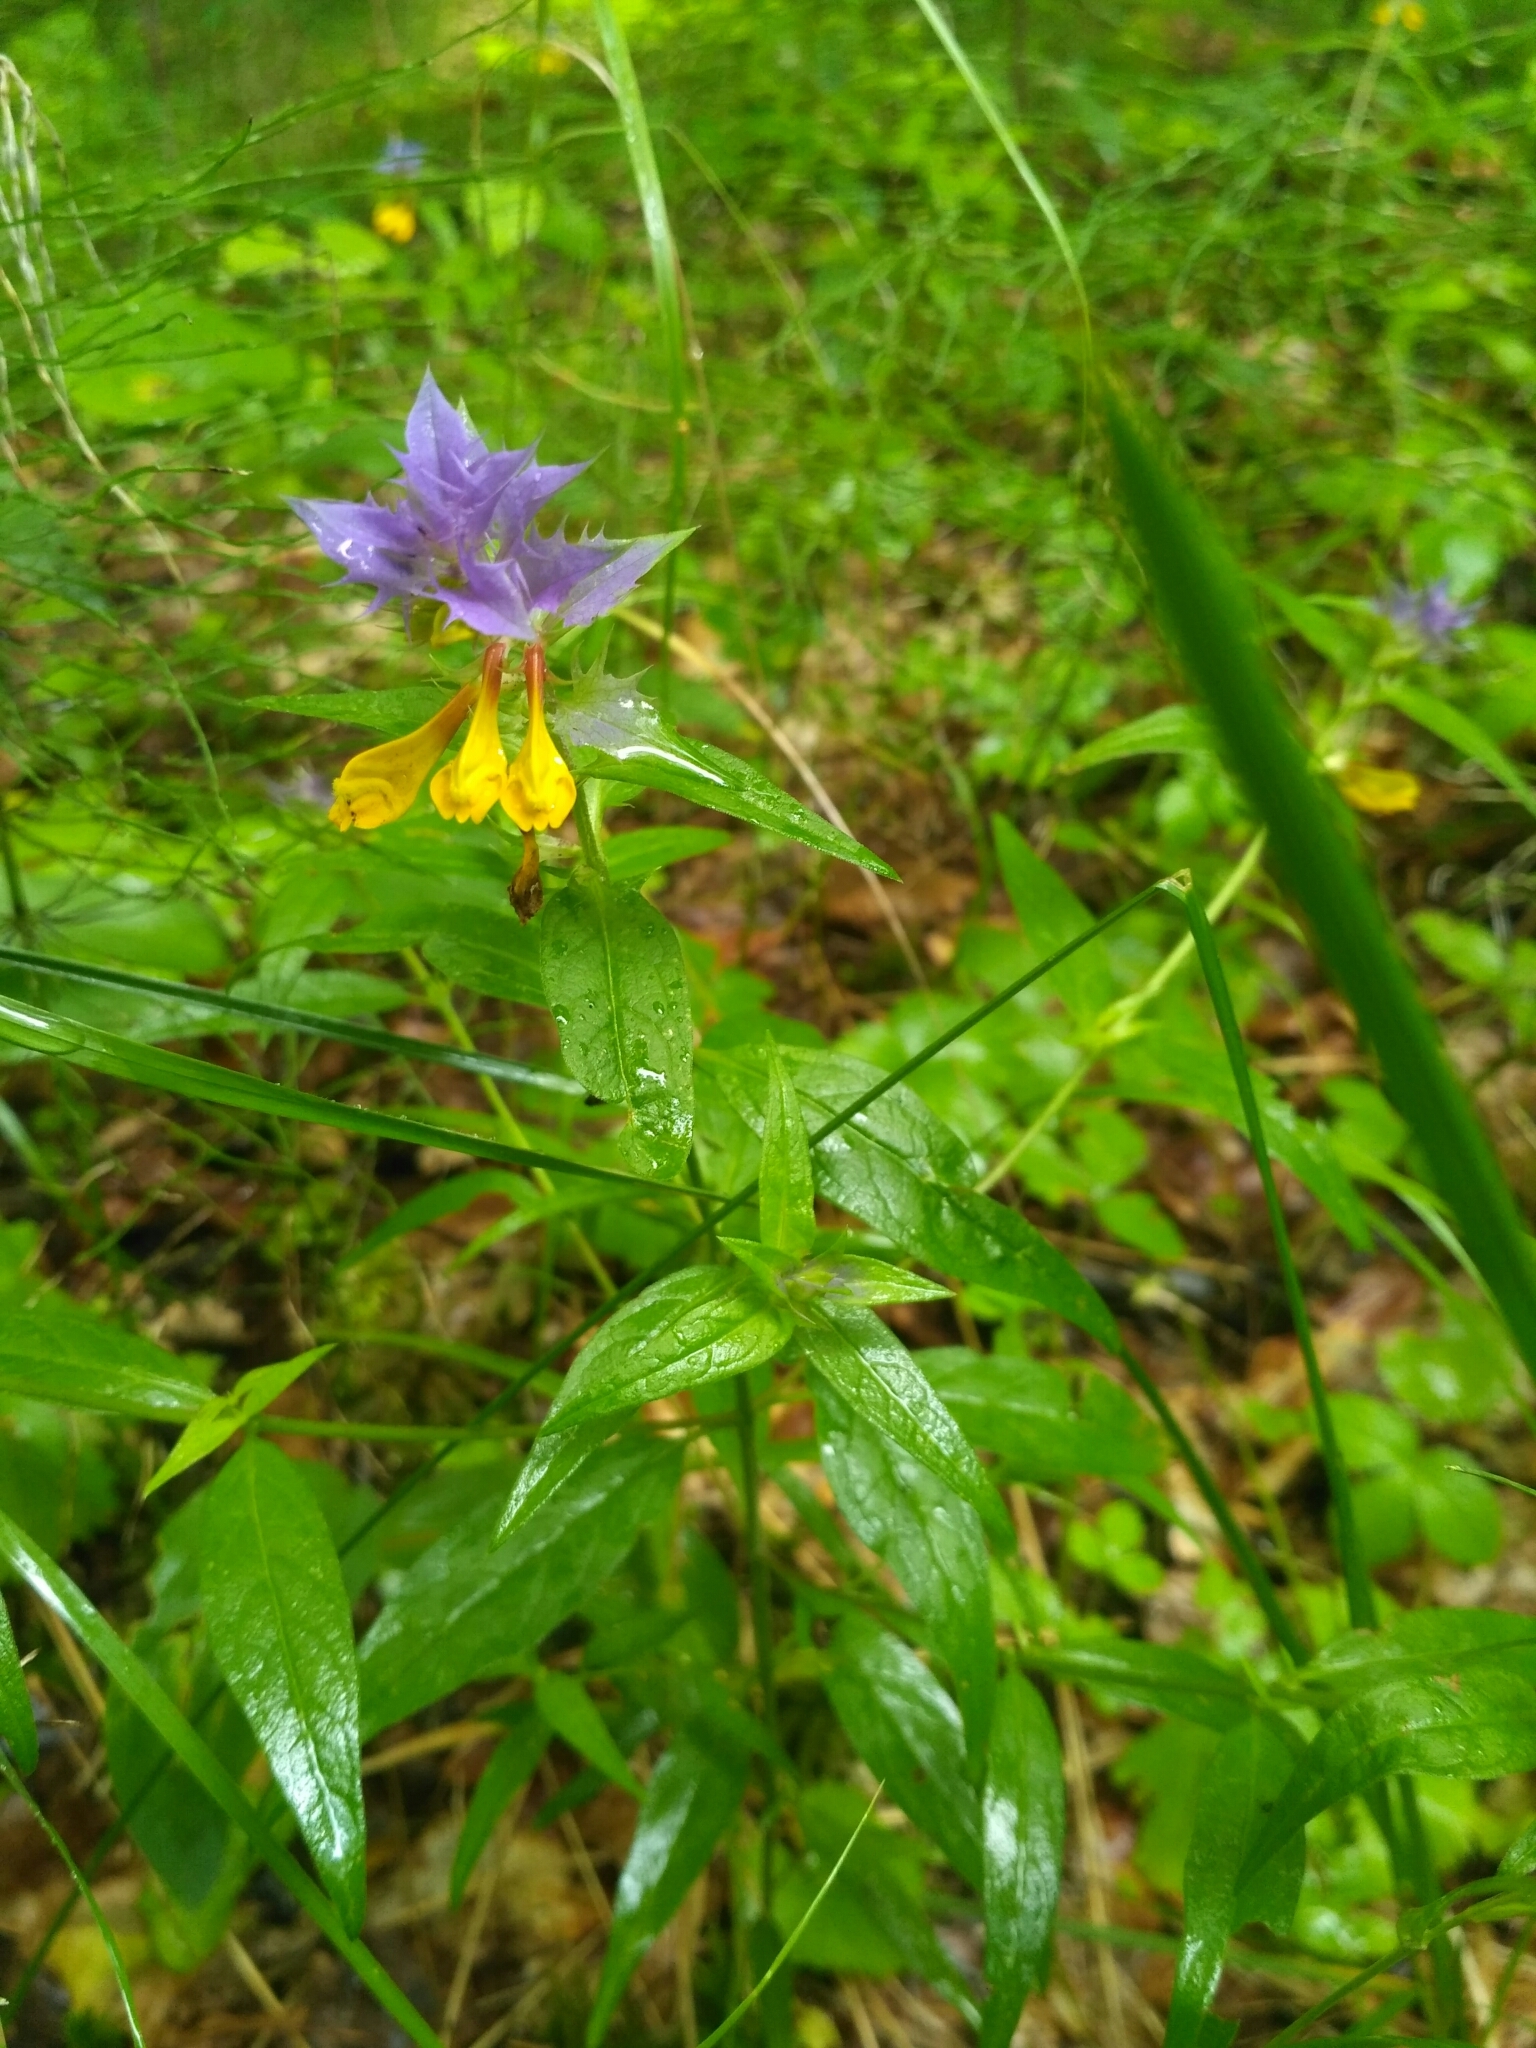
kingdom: Plantae
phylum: Tracheophyta
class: Magnoliopsida
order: Lamiales
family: Orobanchaceae
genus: Melampyrum
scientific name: Melampyrum nemorosum
